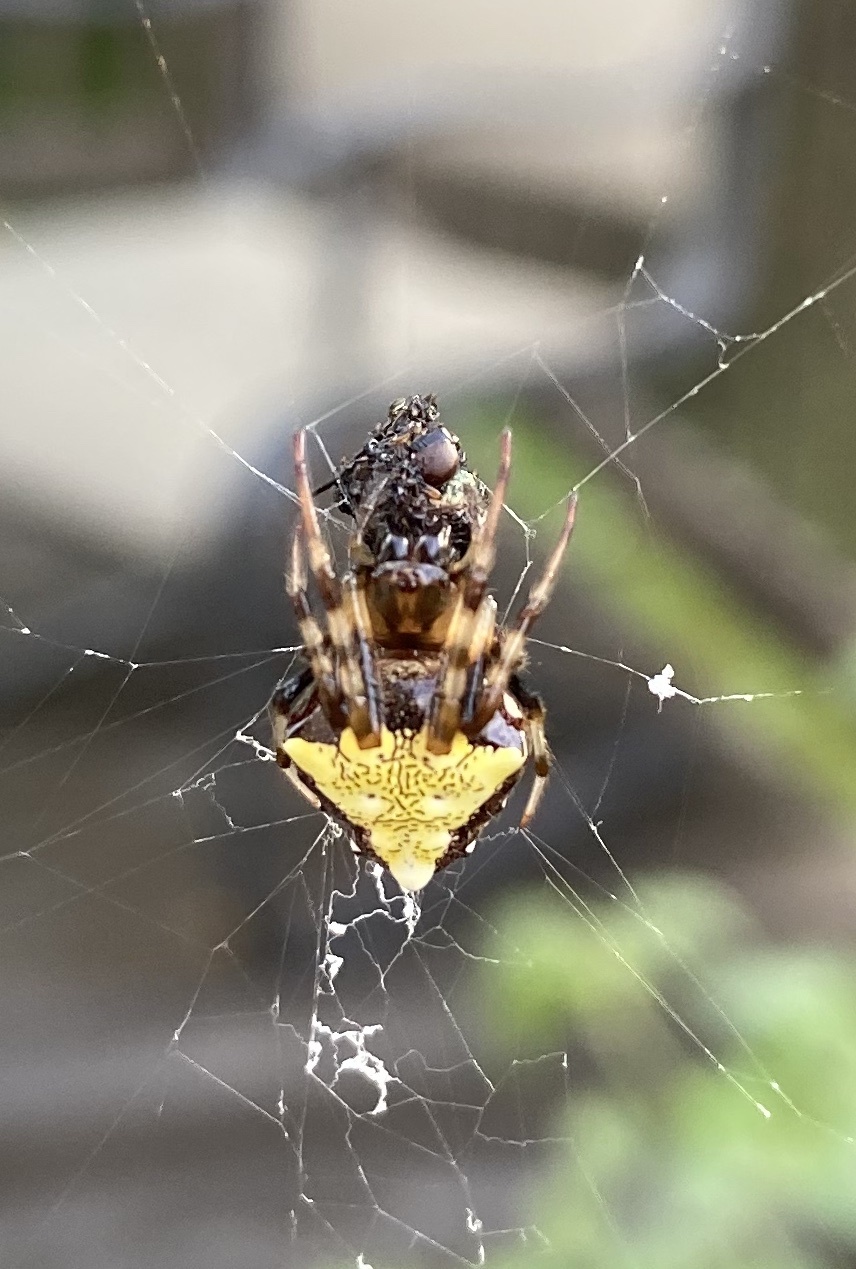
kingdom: Animalia
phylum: Arthropoda
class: Arachnida
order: Araneae
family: Araneidae
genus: Verrucosa
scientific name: Verrucosa arenata
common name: Orb weavers
